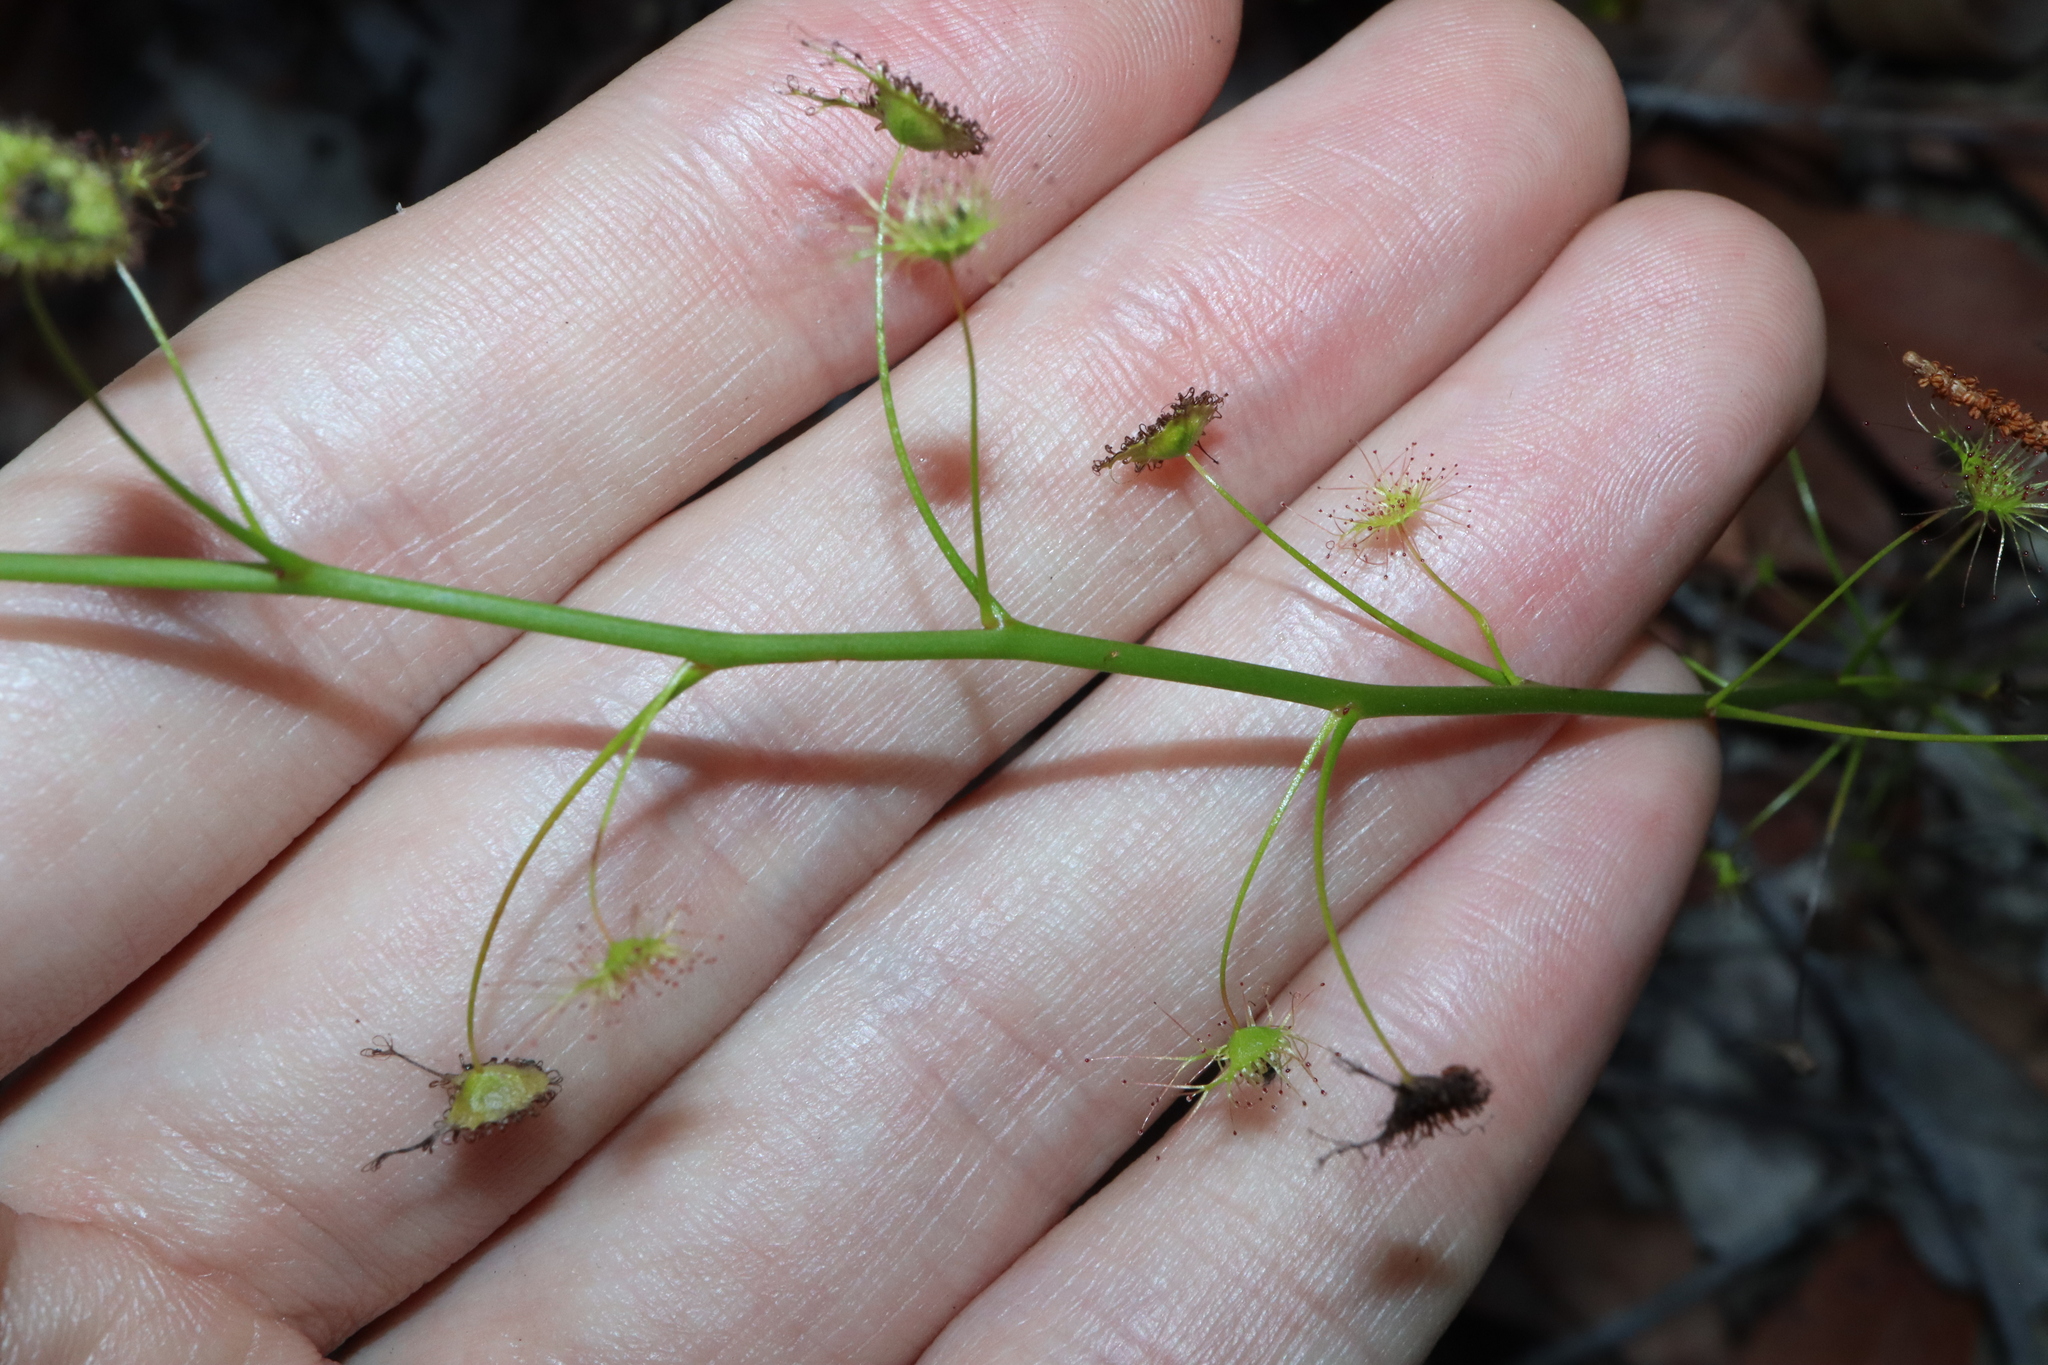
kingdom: Plantae
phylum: Tracheophyta
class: Magnoliopsida
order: Caryophyllales
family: Droseraceae
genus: Drosera
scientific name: Drosera peltata
